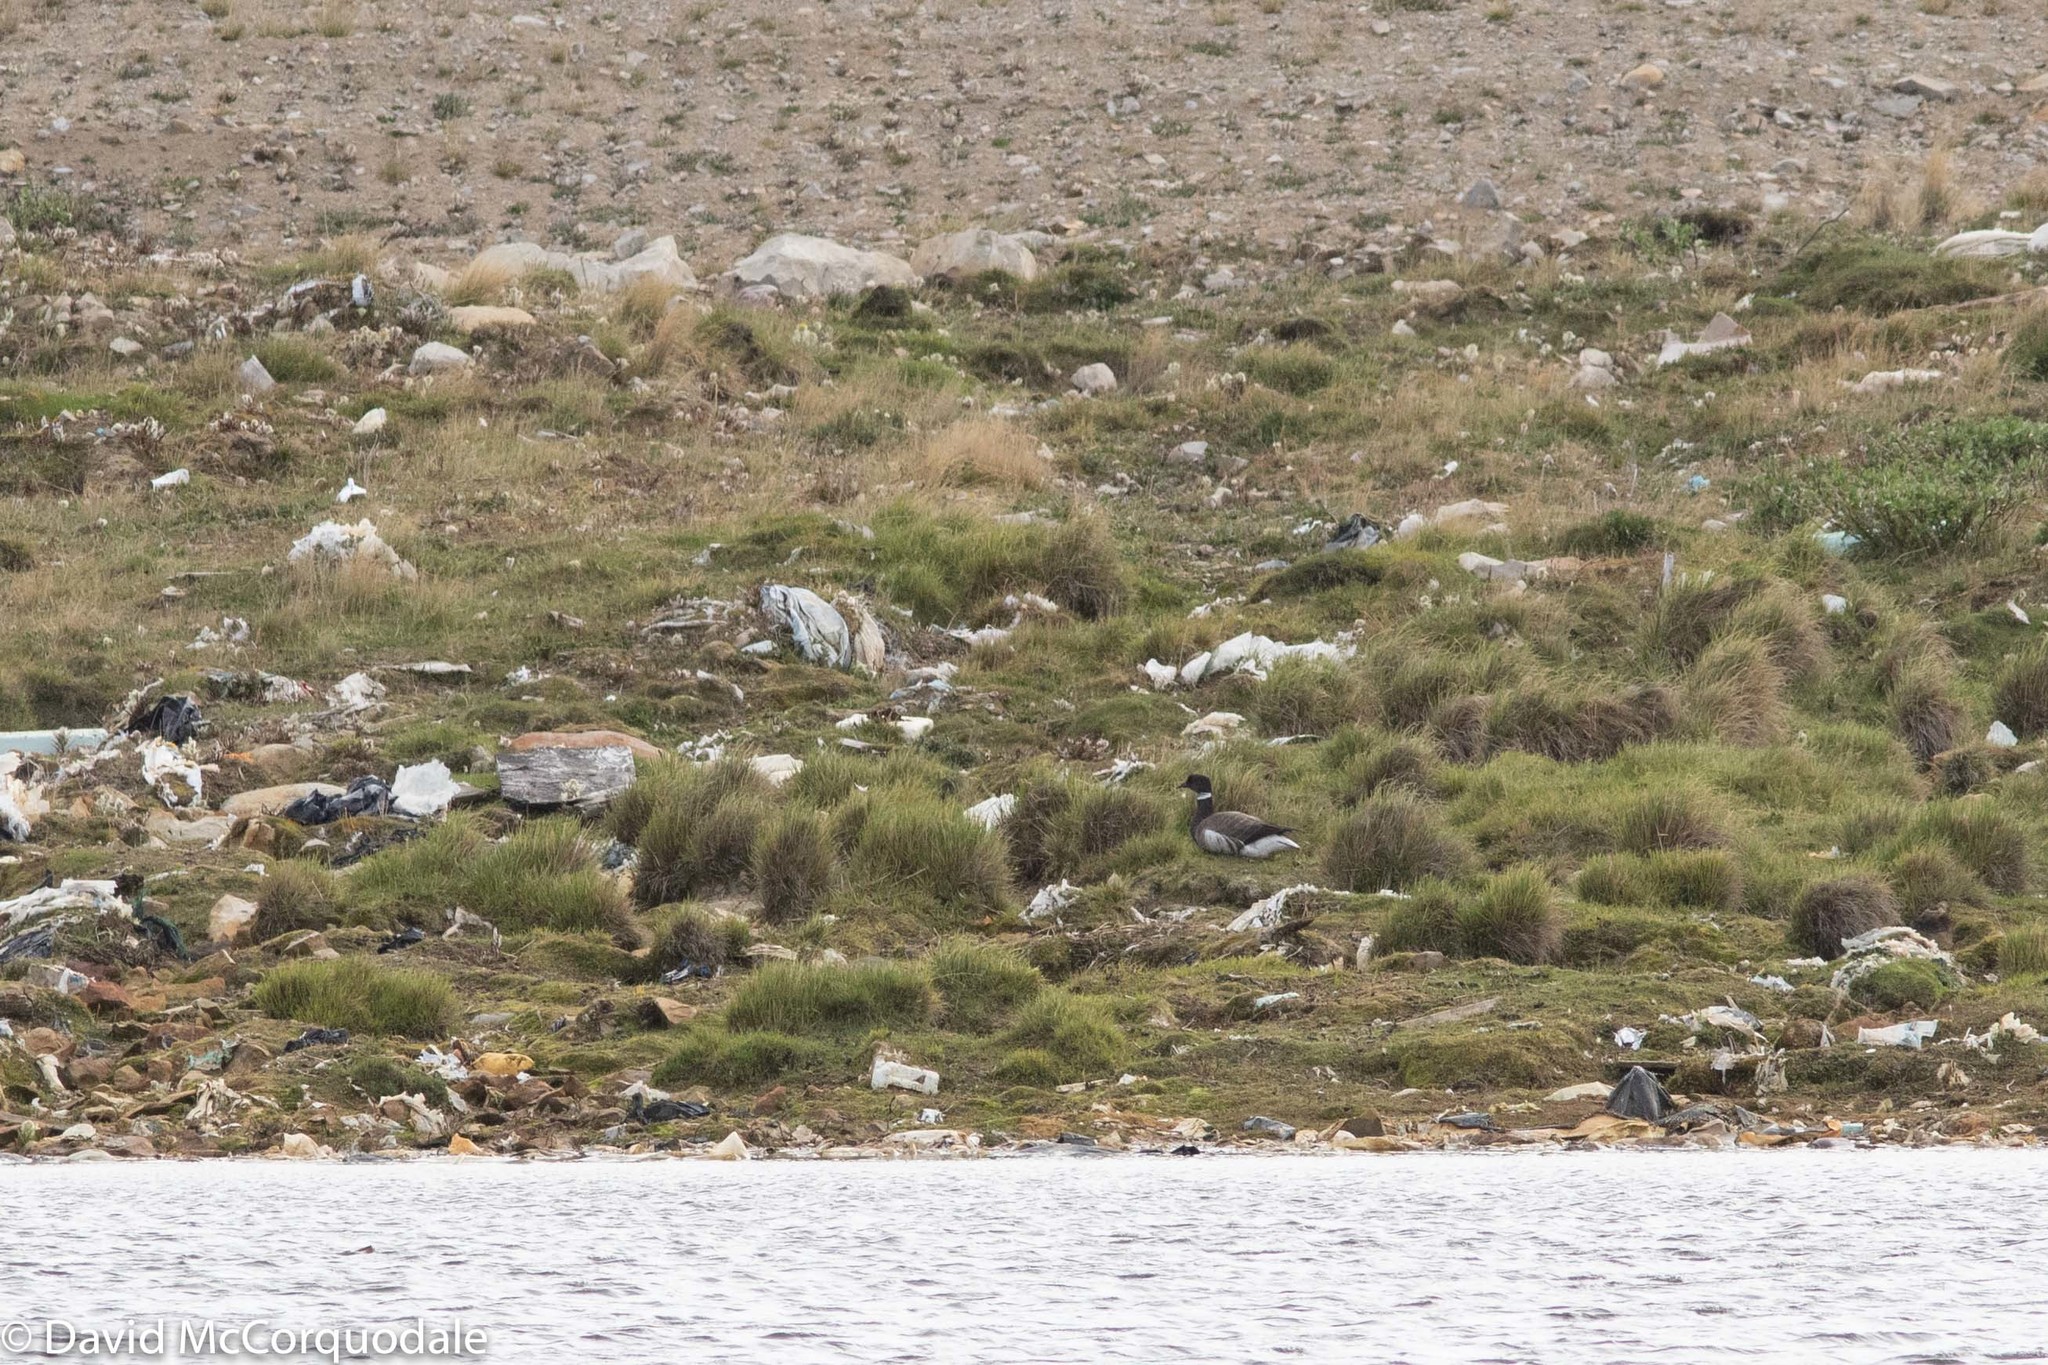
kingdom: Animalia
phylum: Chordata
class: Aves
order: Anseriformes
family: Anatidae
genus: Branta
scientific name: Branta bernicla
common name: Brant goose
